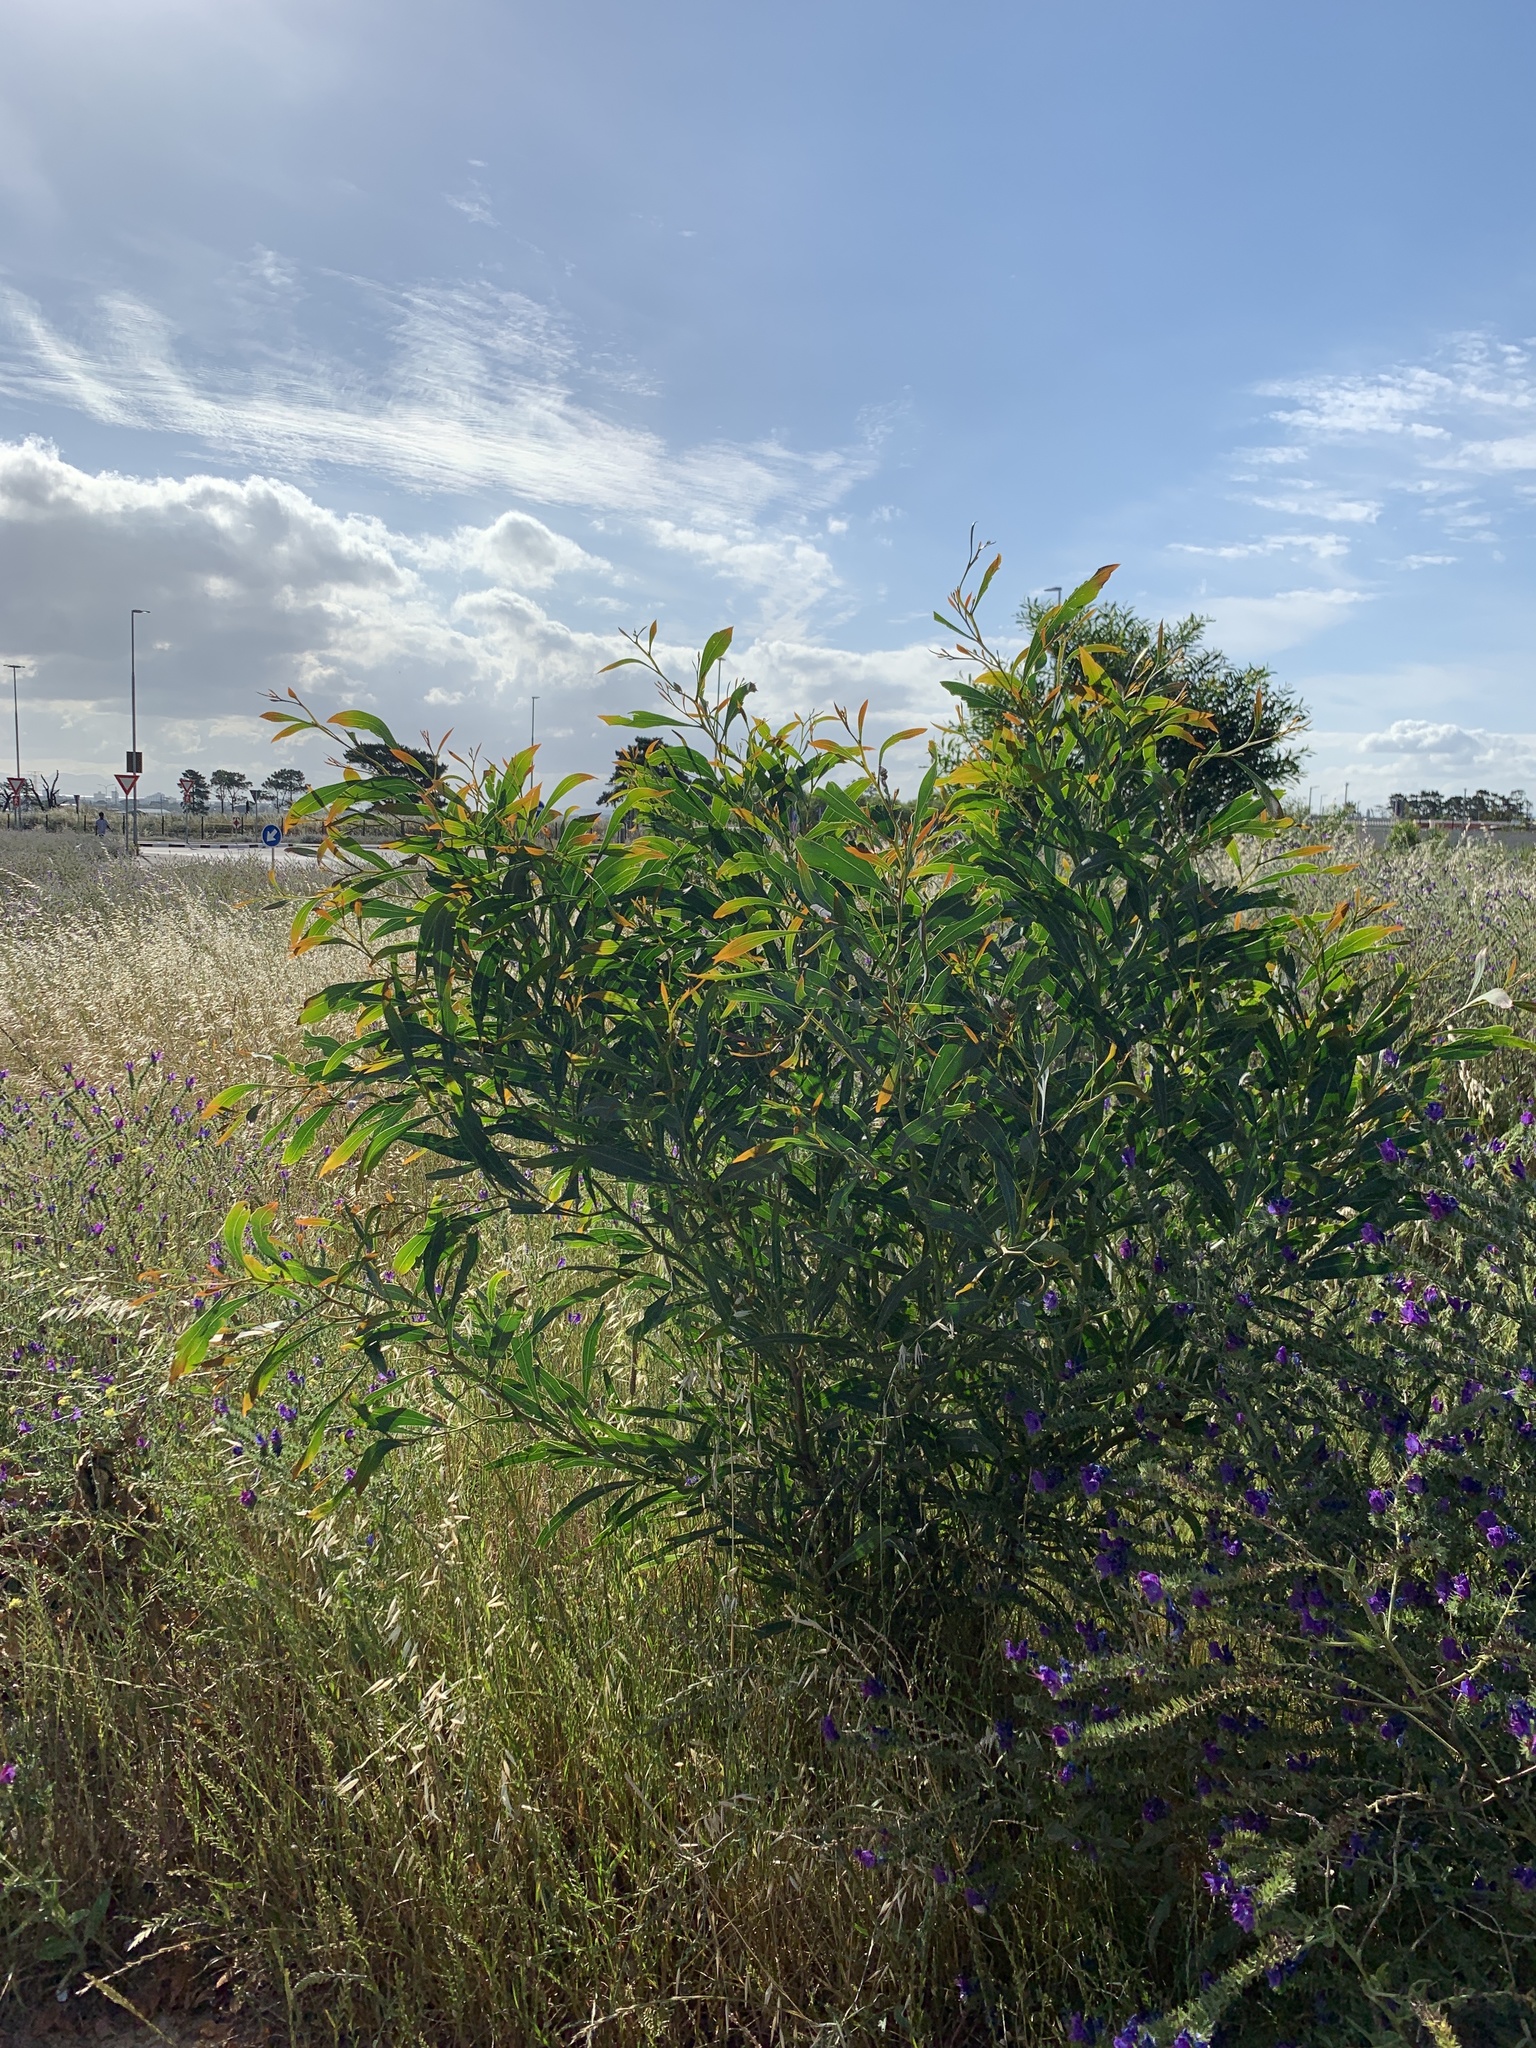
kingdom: Plantae
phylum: Tracheophyta
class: Magnoliopsida
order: Fabales
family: Fabaceae
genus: Acacia
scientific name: Acacia saligna
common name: Orange wattle
